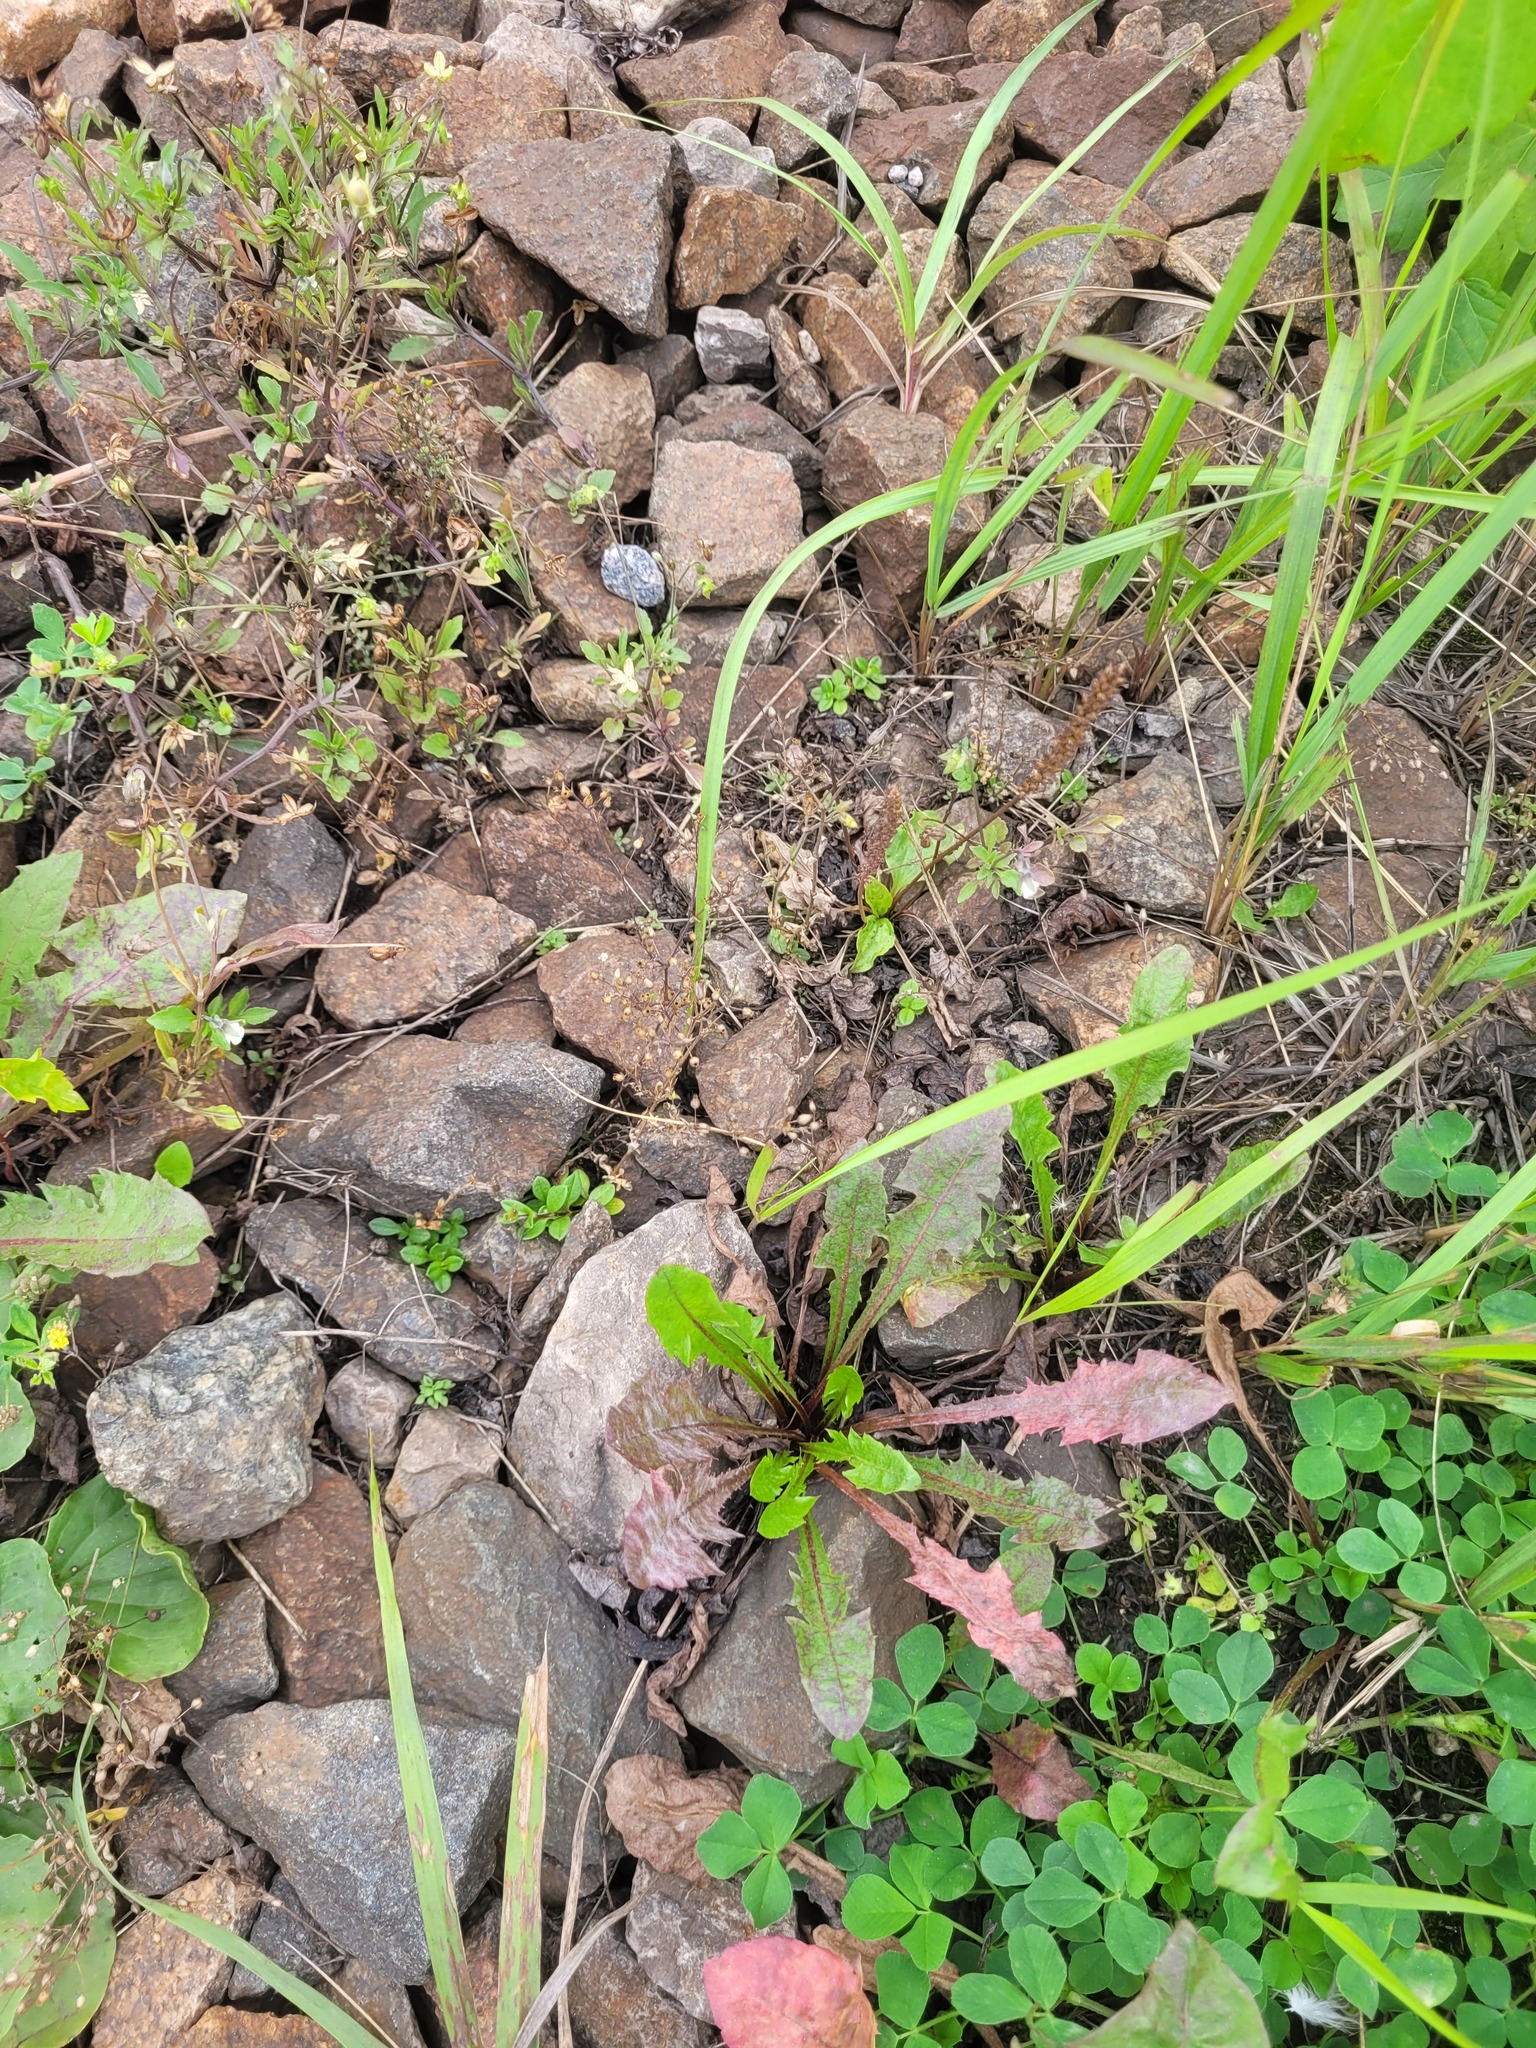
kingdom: Plantae
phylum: Tracheophyta
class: Magnoliopsida
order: Caryophyllales
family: Caryophyllaceae
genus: Arenaria
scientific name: Arenaria serpyllifolia
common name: Thyme-leaved sandwort
